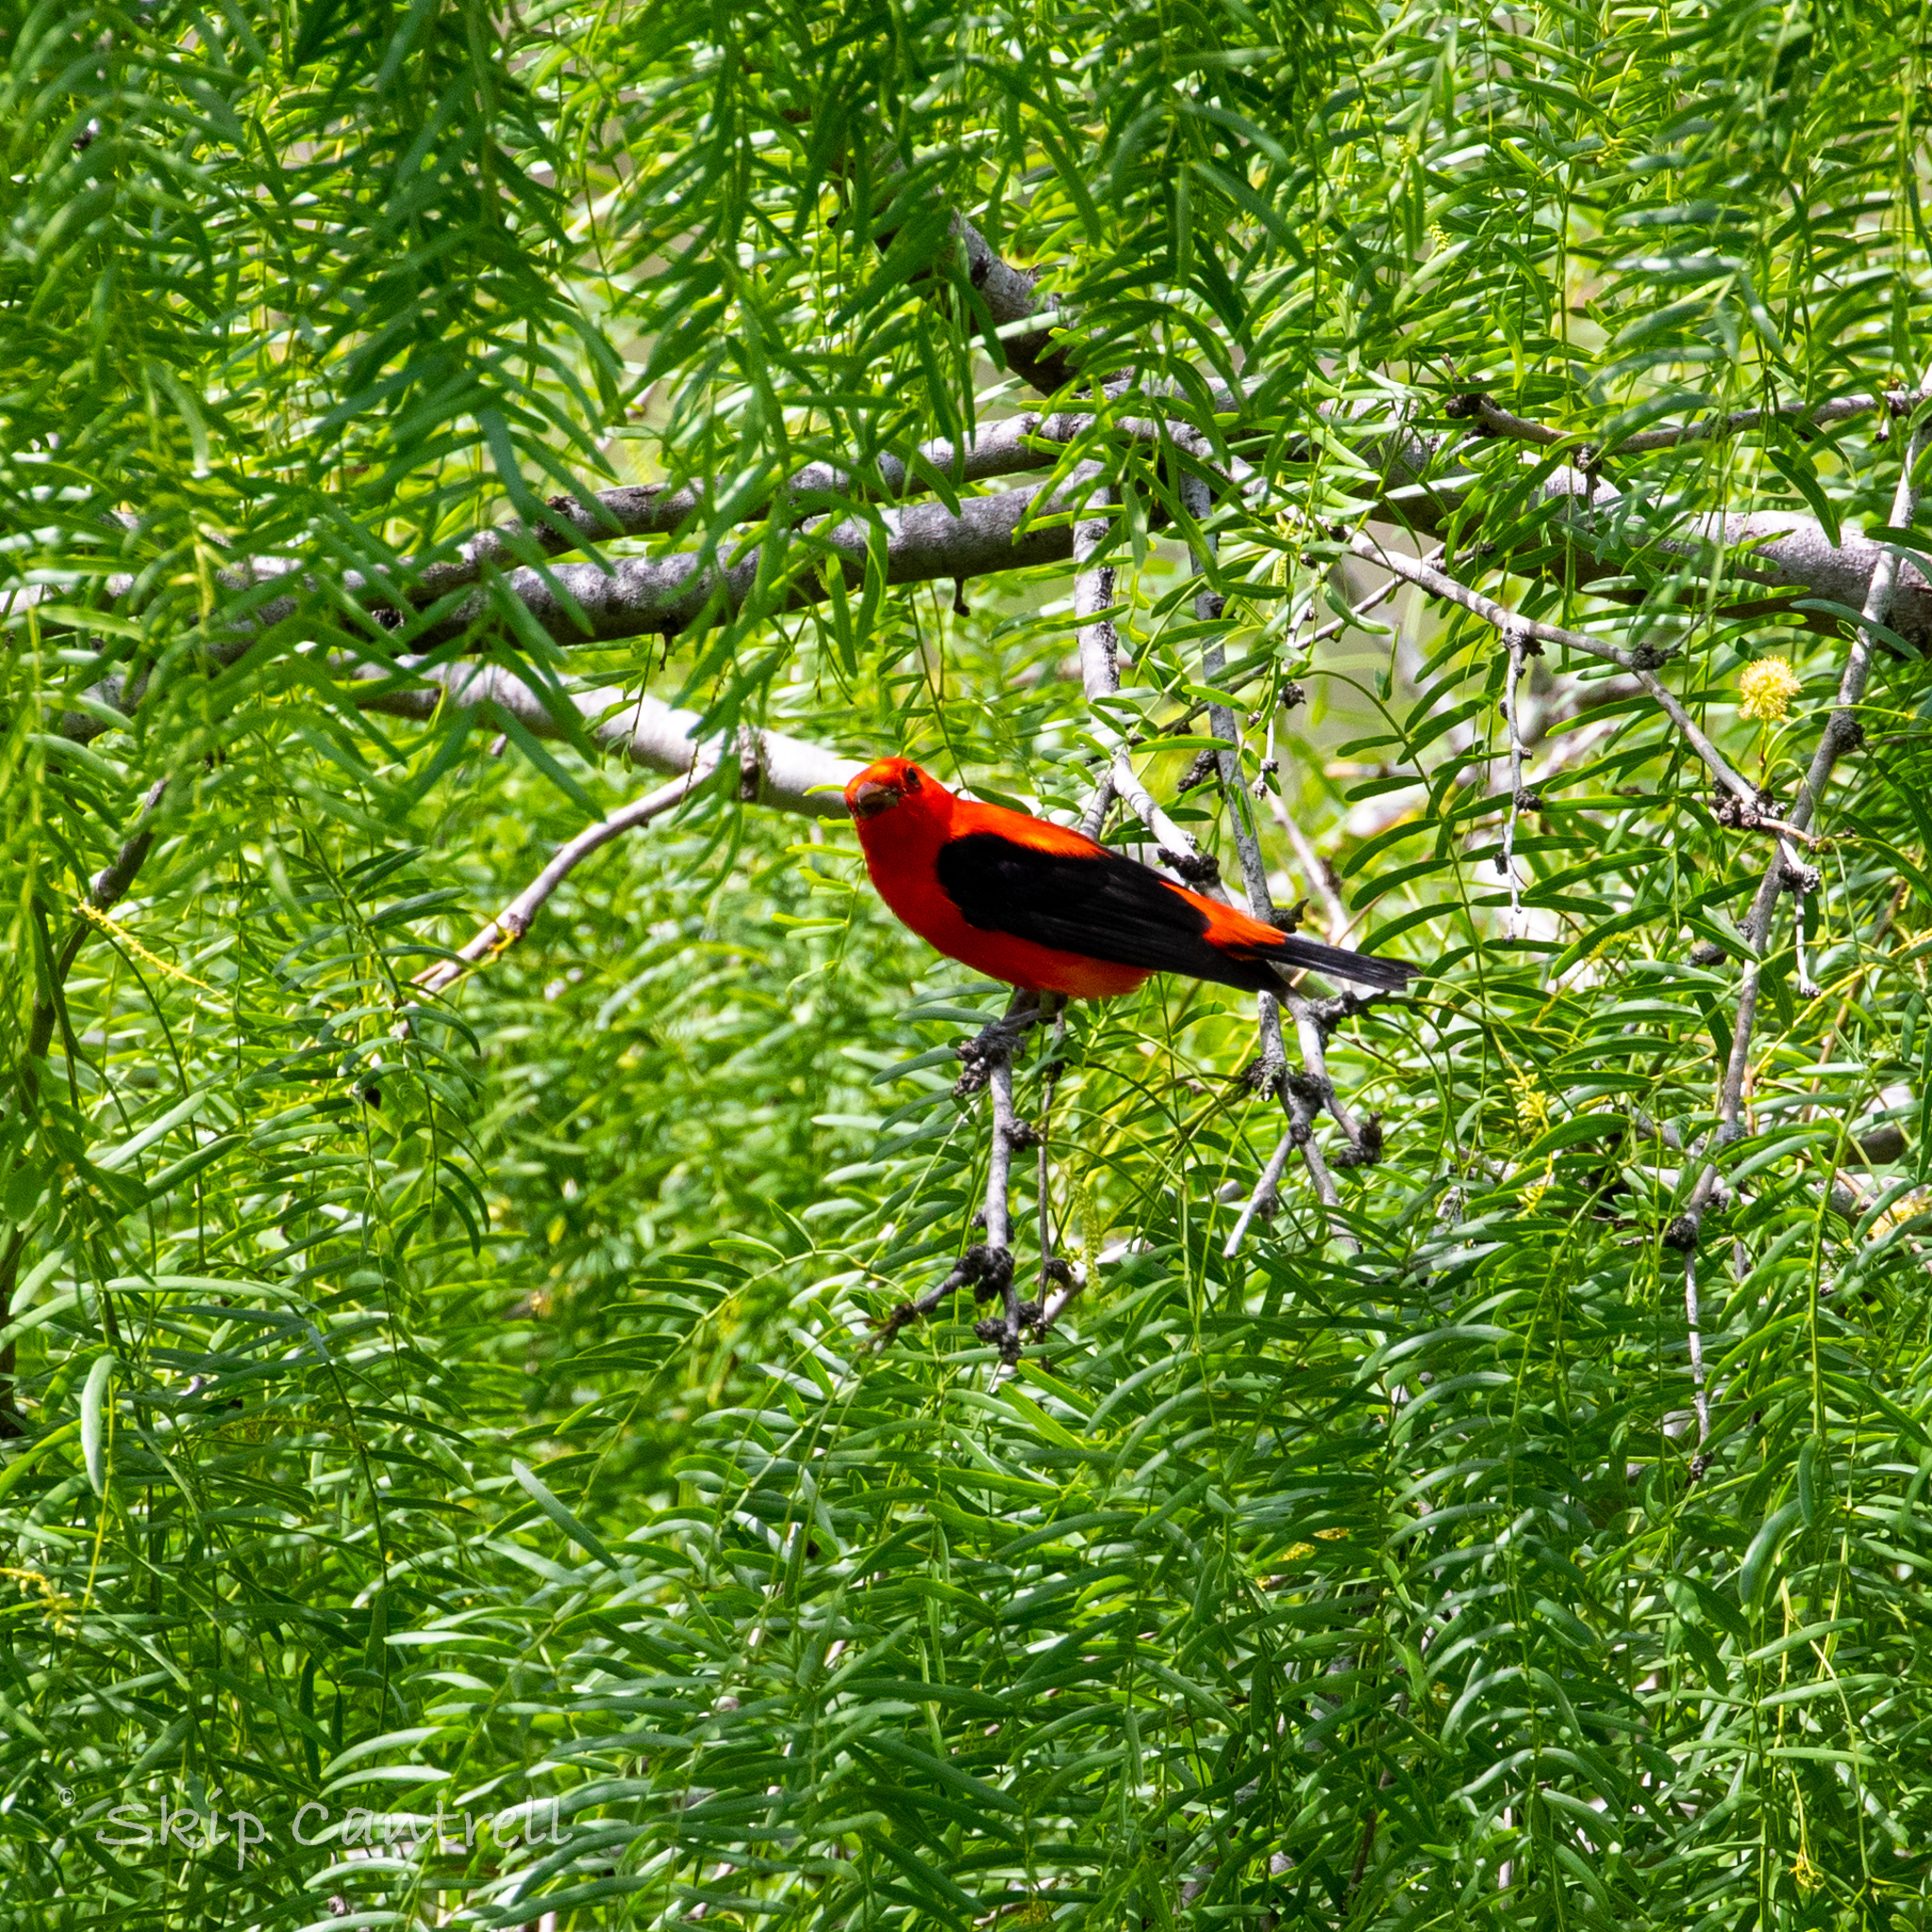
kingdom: Animalia
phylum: Chordata
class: Aves
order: Passeriformes
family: Cardinalidae
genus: Piranga
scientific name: Piranga olivacea
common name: Scarlet tanager
